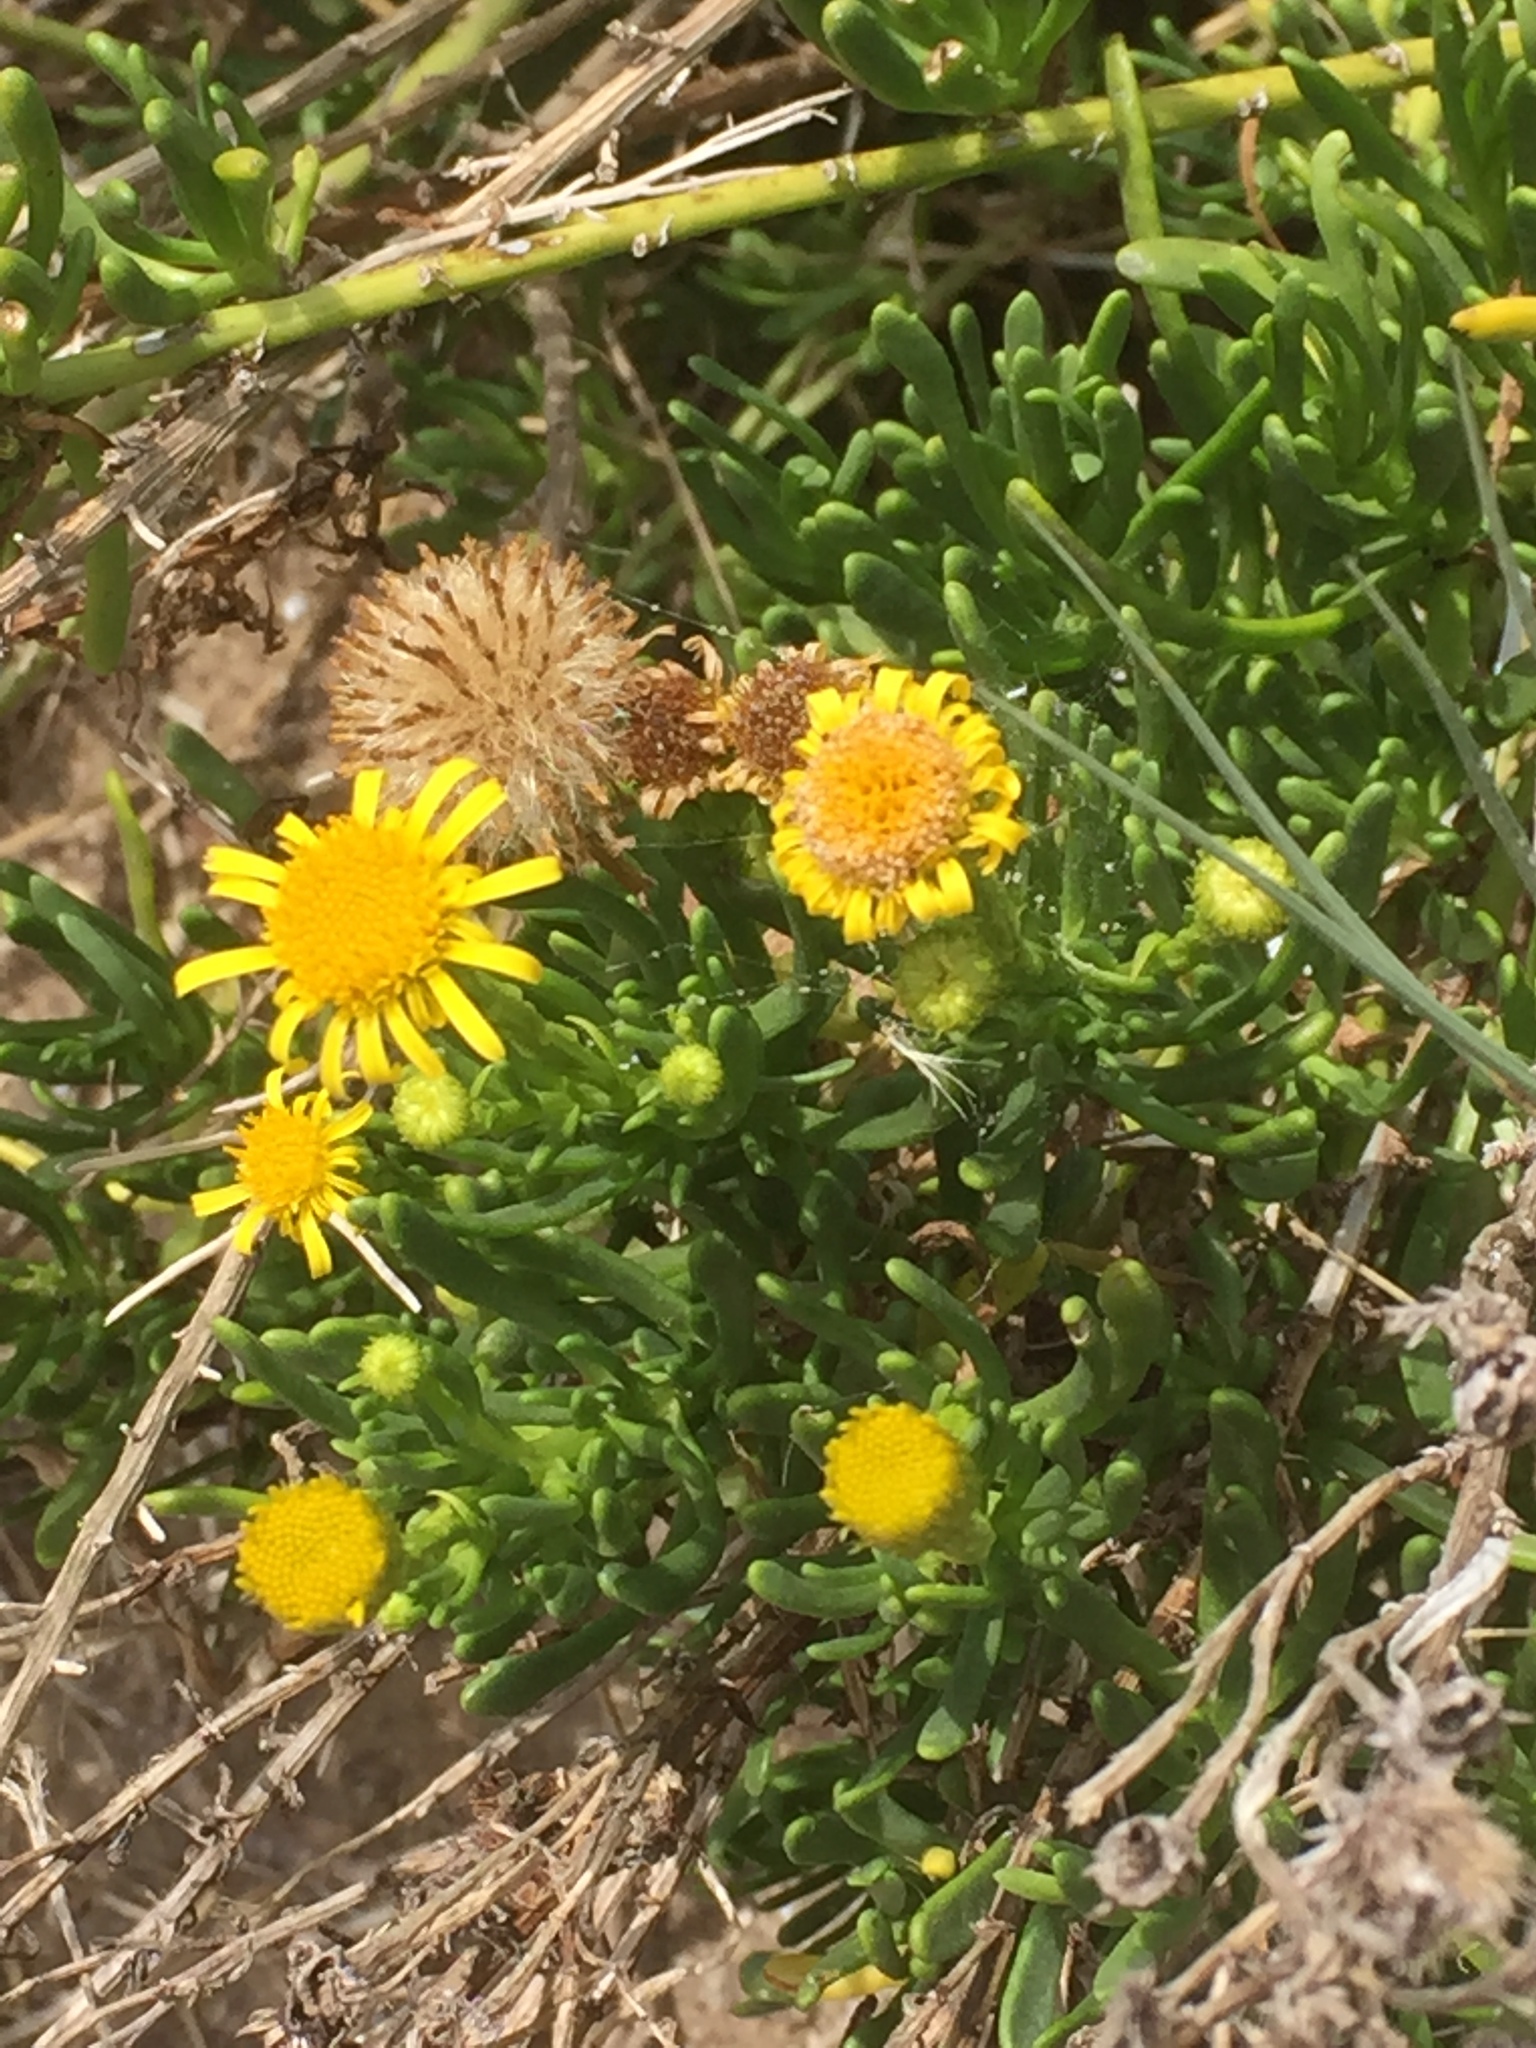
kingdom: Plantae
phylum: Tracheophyta
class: Magnoliopsida
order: Asterales
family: Asteraceae
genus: Limbarda
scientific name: Limbarda crithmoides
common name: Golden samphire
